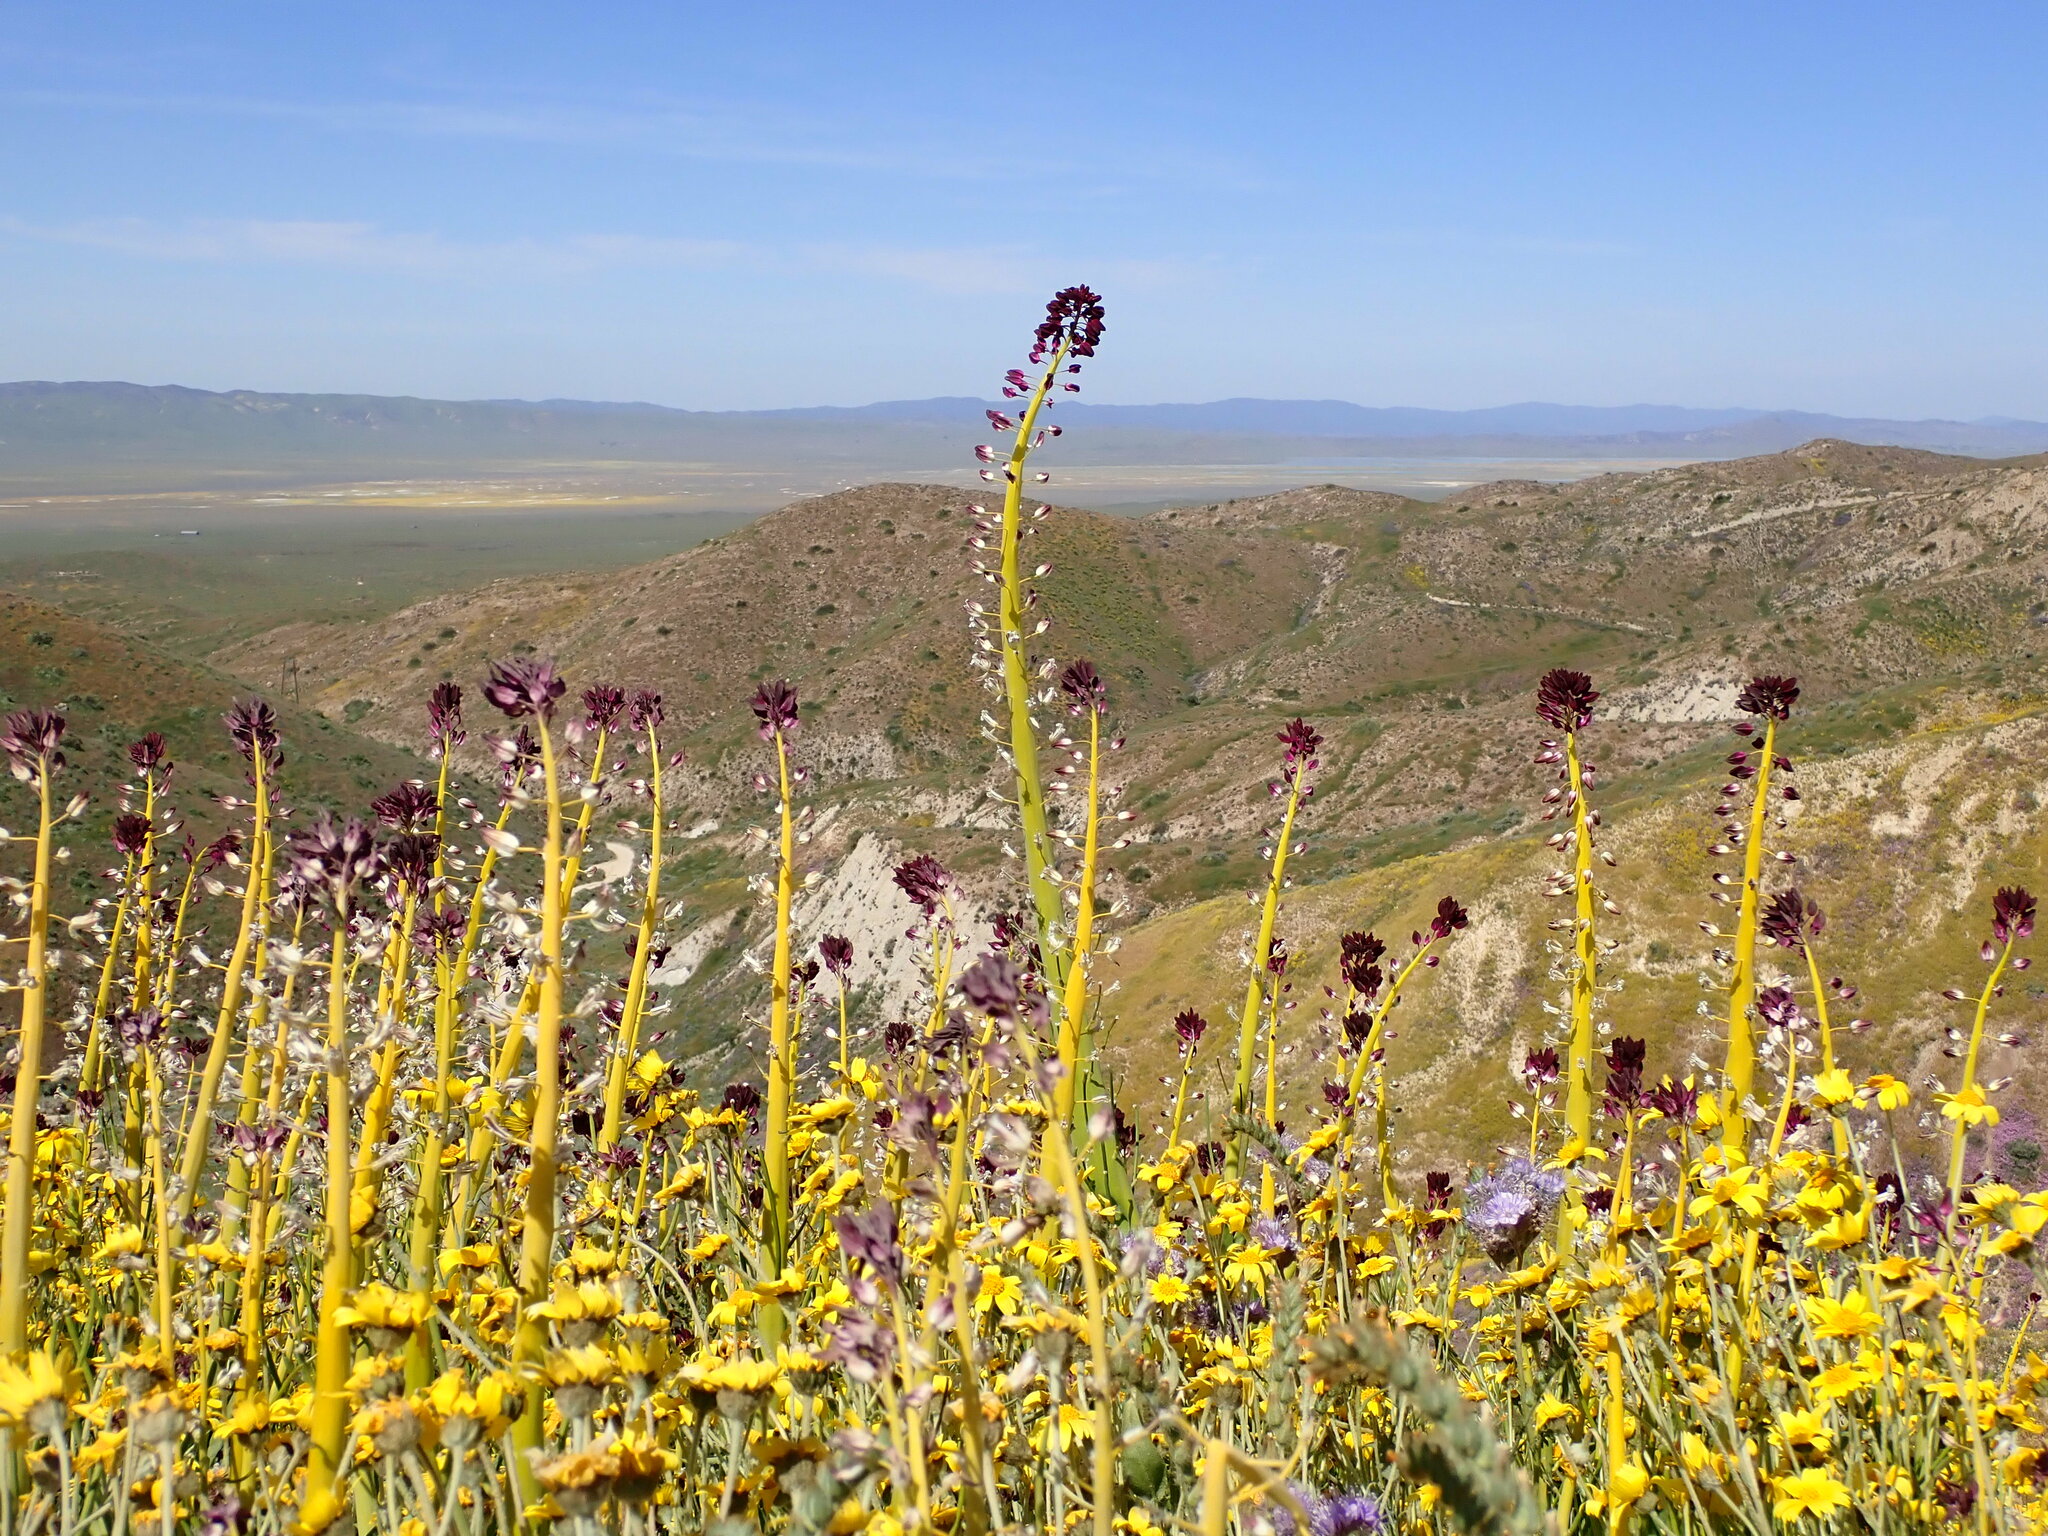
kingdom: Plantae
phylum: Tracheophyta
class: Magnoliopsida
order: Brassicales
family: Brassicaceae
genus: Streptanthus
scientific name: Streptanthus inflatus
